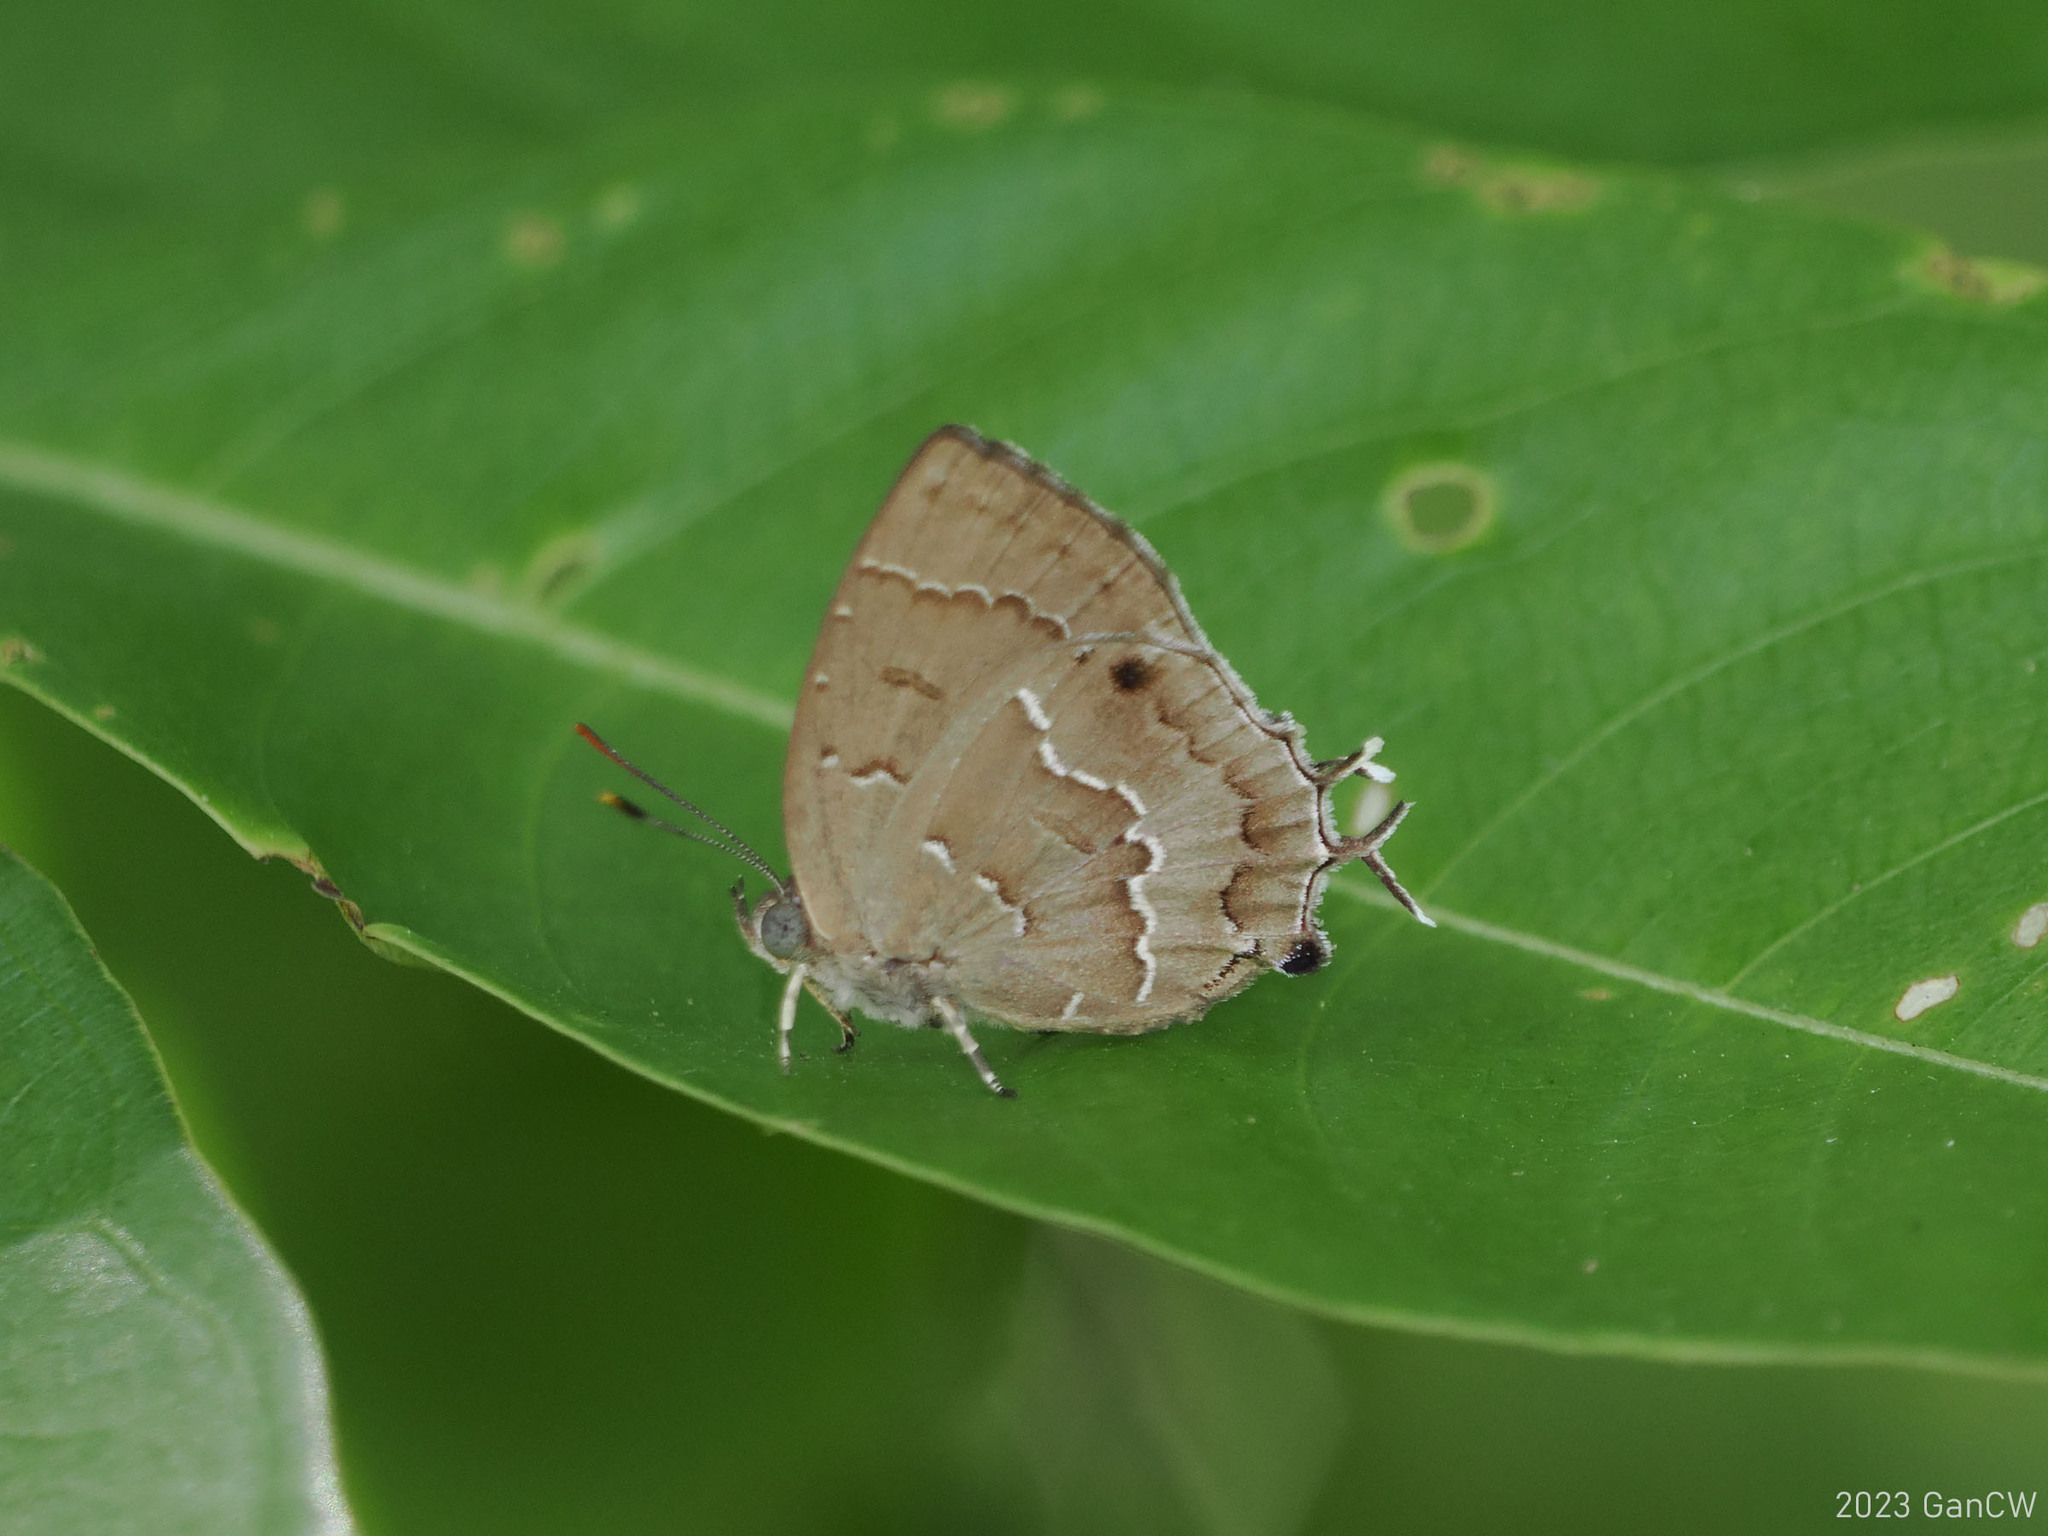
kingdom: Animalia
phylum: Arthropoda
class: Insecta
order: Lepidoptera
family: Lycaenidae
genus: Surendra
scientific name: Surendra vivarna
